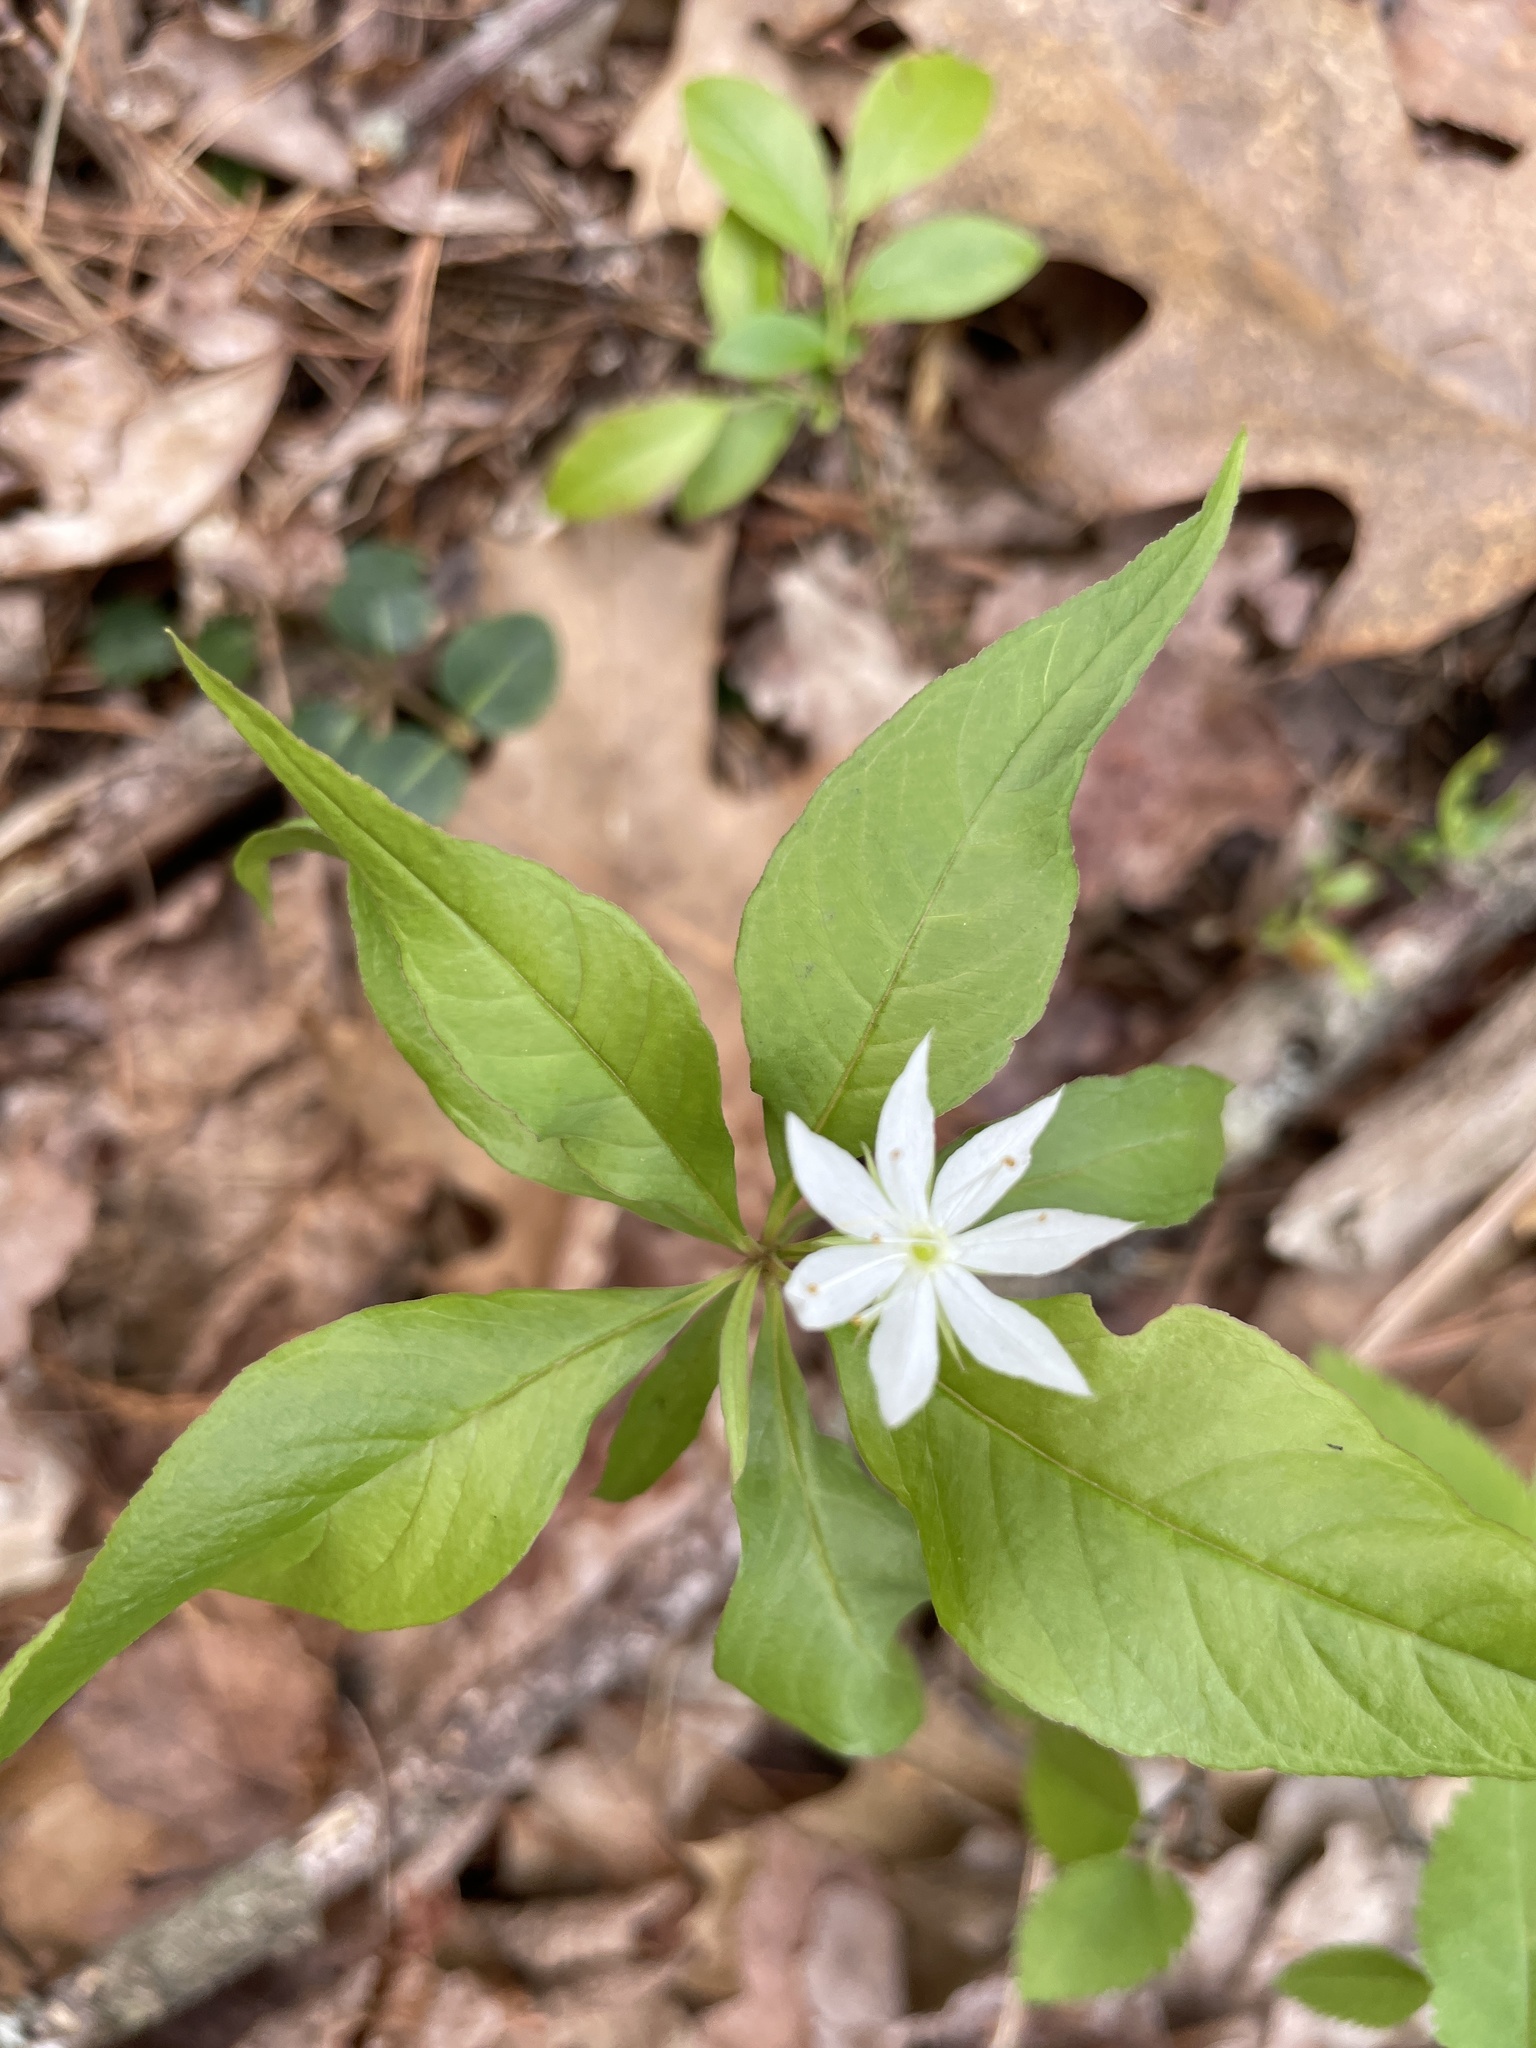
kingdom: Plantae
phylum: Tracheophyta
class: Magnoliopsida
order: Ericales
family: Primulaceae
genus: Lysimachia
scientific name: Lysimachia borealis
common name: American starflower
